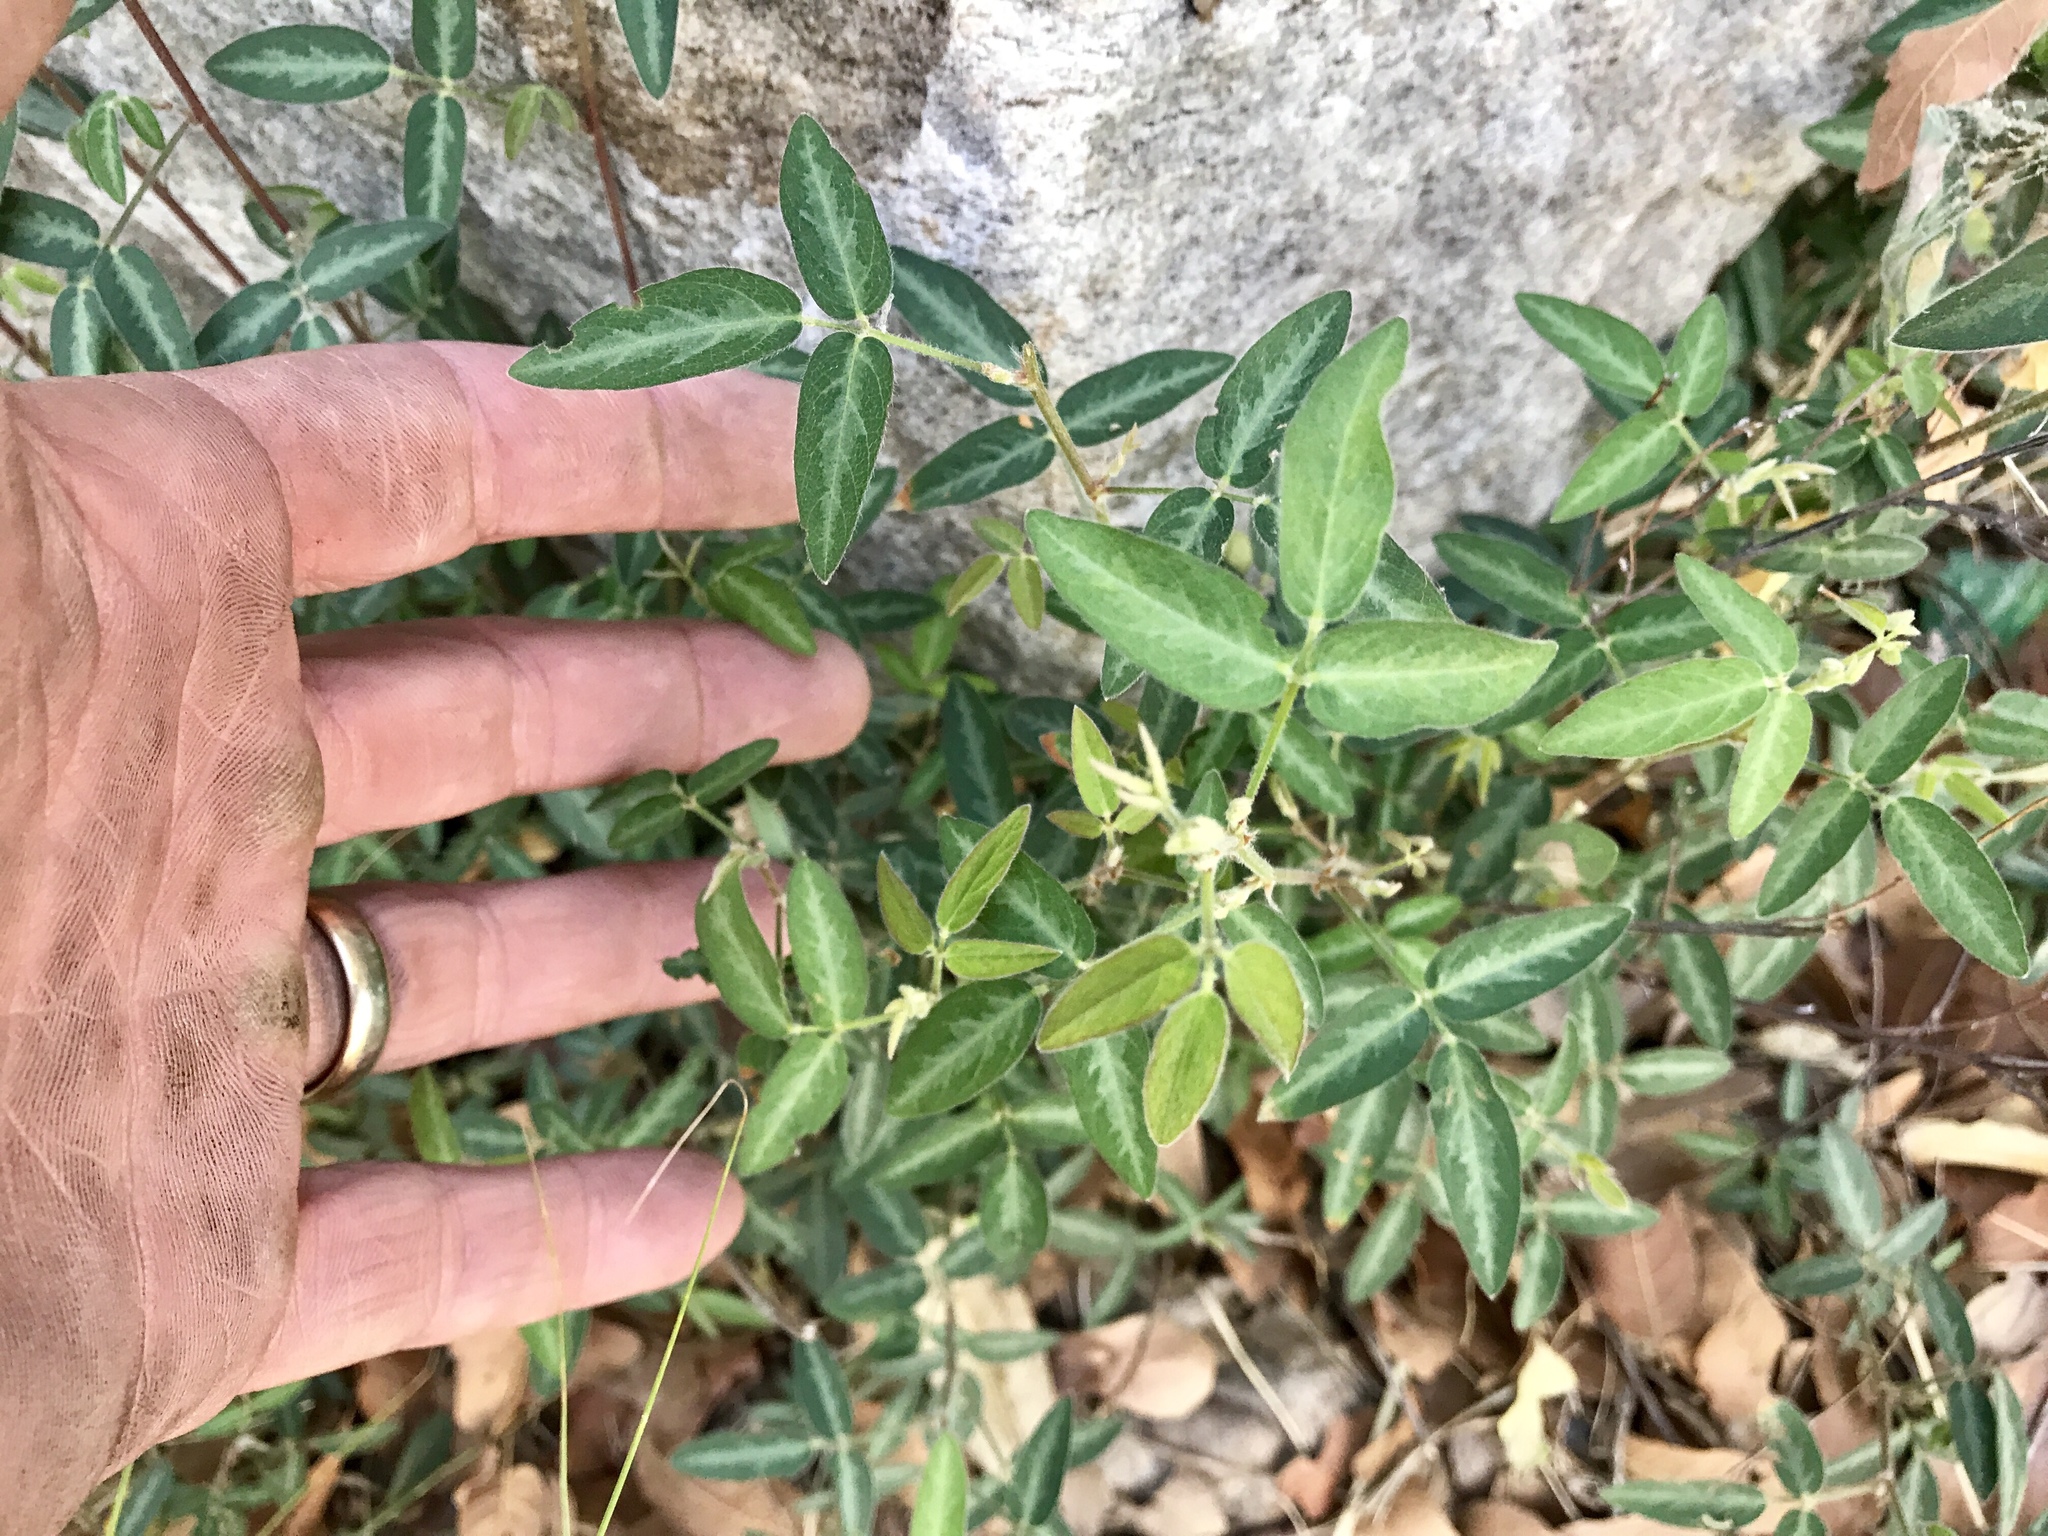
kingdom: Plantae
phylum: Tracheophyta
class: Magnoliopsida
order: Fabales
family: Fabaceae
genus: Desmodium
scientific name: Desmodium batocaulon
